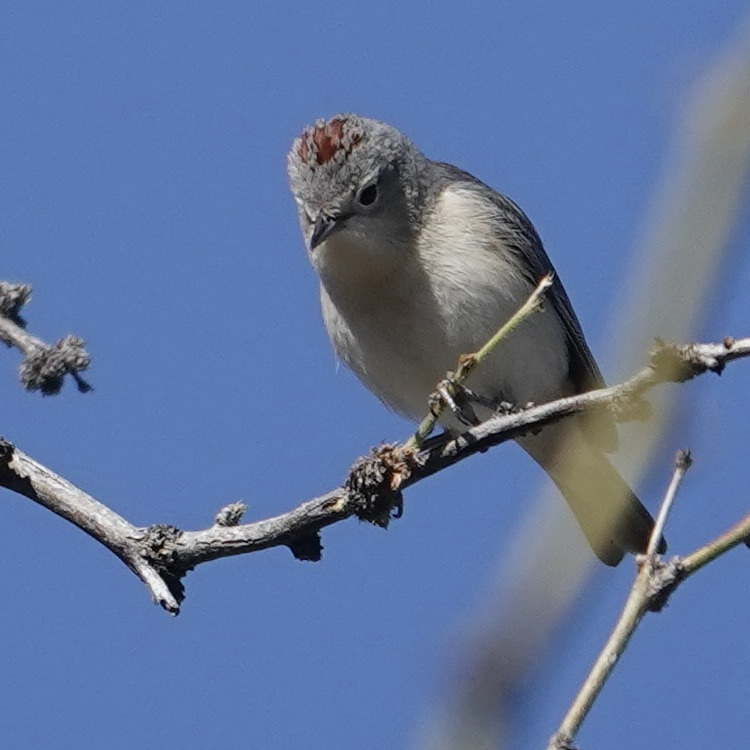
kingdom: Animalia
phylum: Chordata
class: Aves
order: Passeriformes
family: Parulidae
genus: Leiothlypis
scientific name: Leiothlypis luciae
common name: Lucy's warbler
